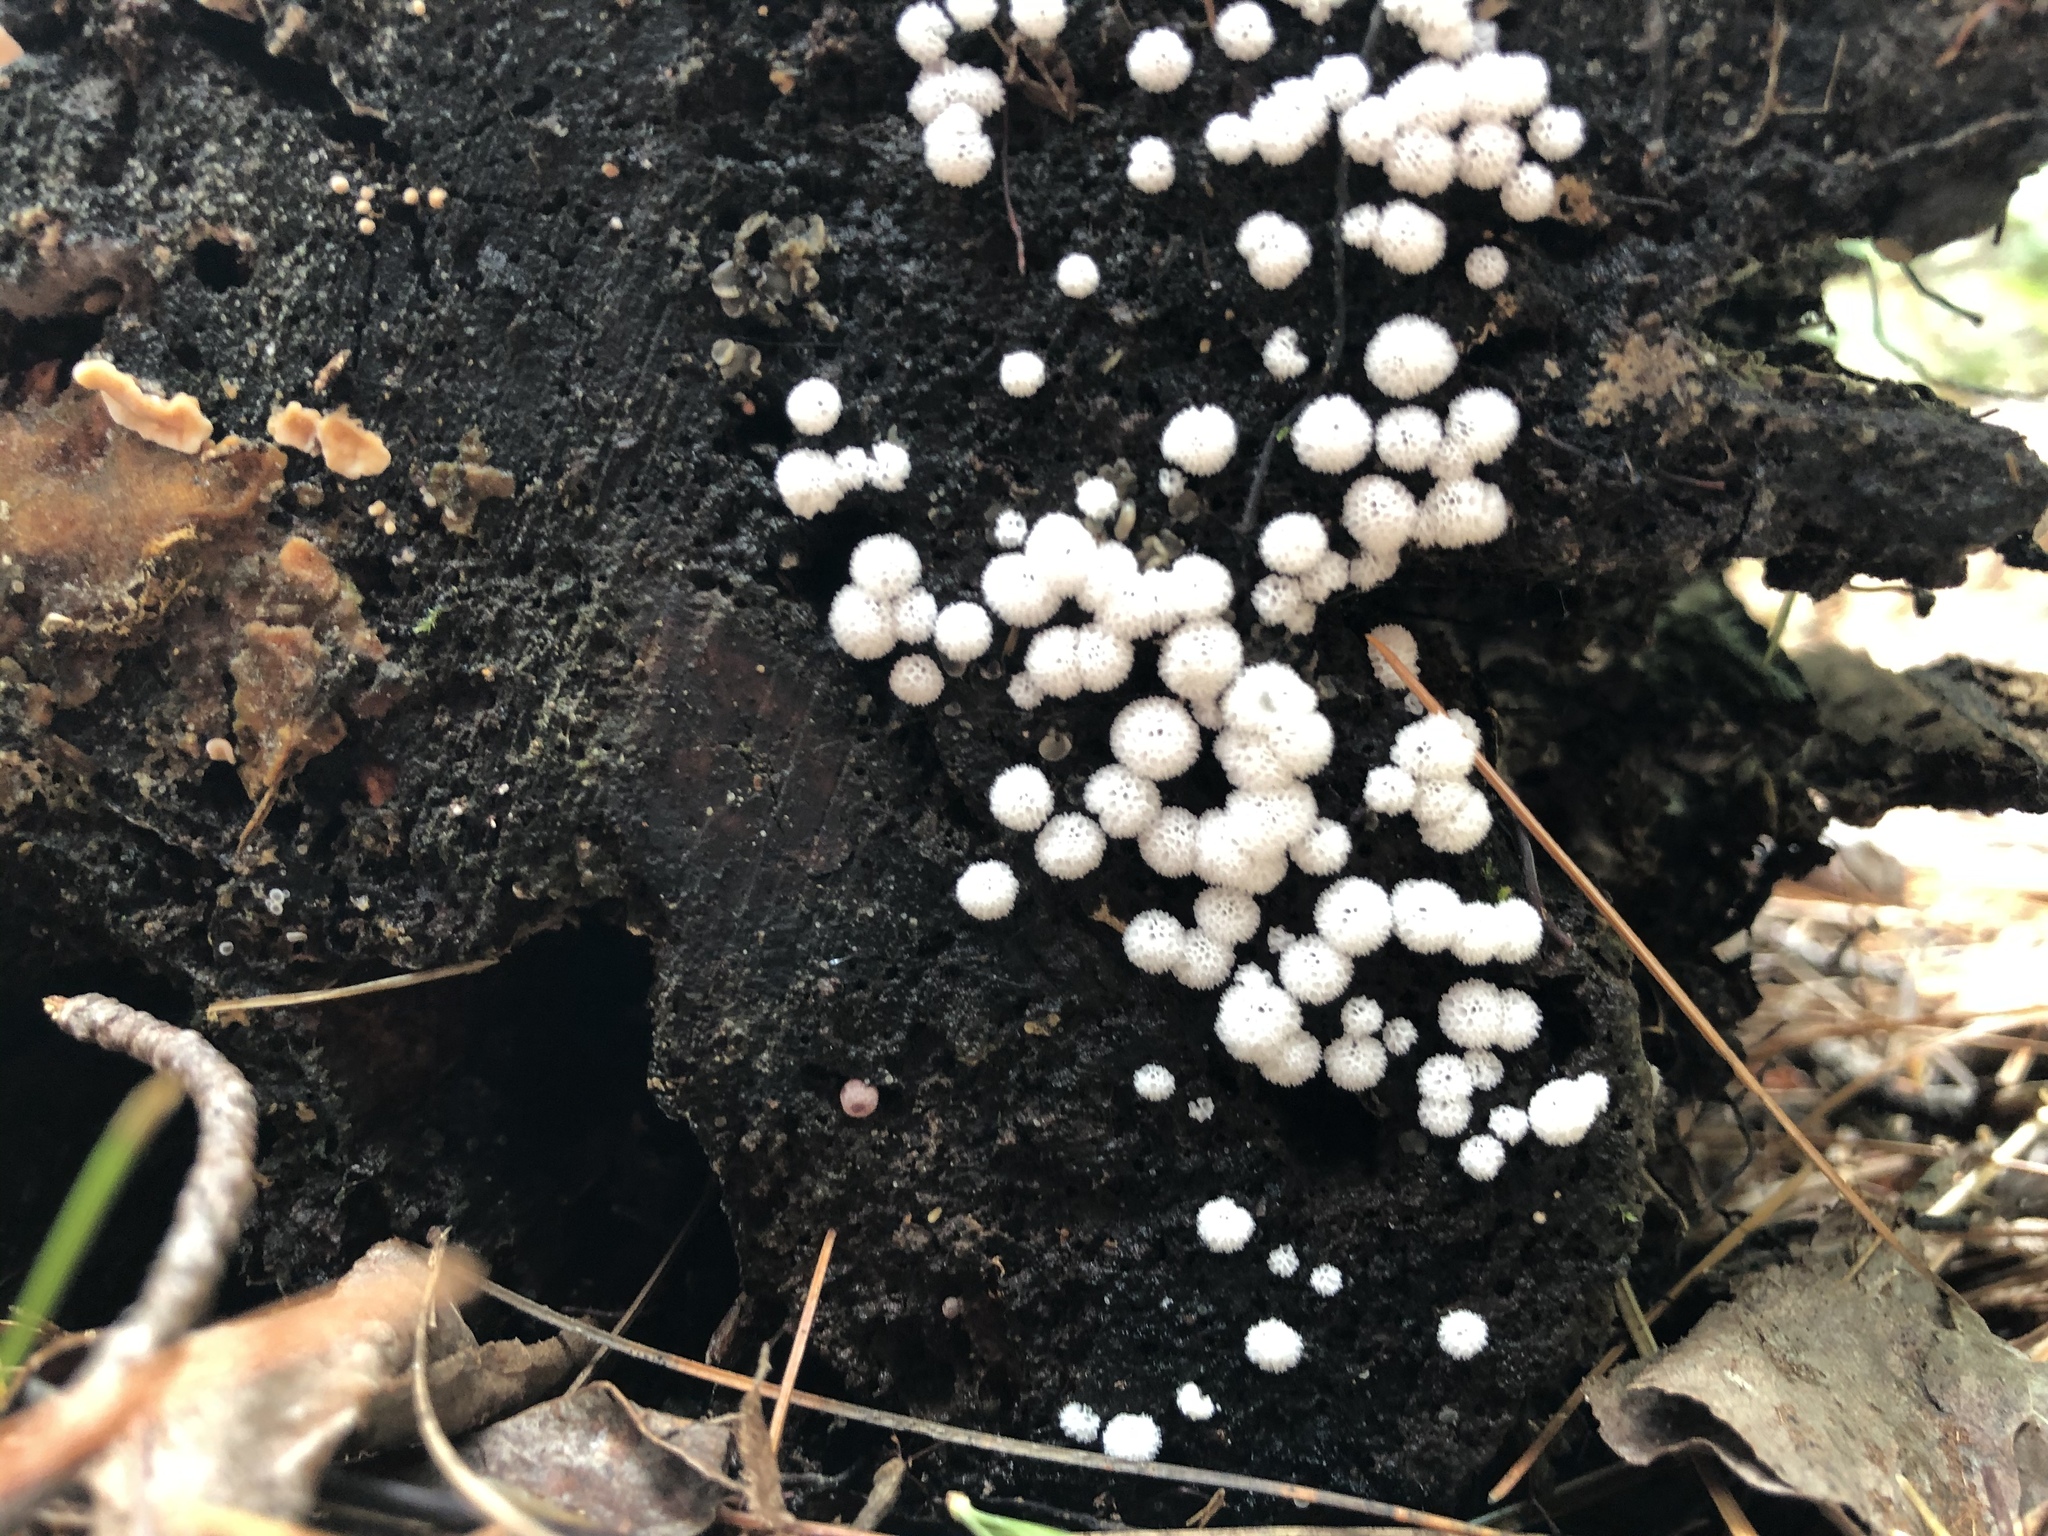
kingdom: Protozoa
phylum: Mycetozoa
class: Protosteliomycetes
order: Ceratiomyxales
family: Ceratiomyxaceae
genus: Ceratiomyxa
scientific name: Ceratiomyxa fruticulosa
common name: Honeycomb coral slime mold
